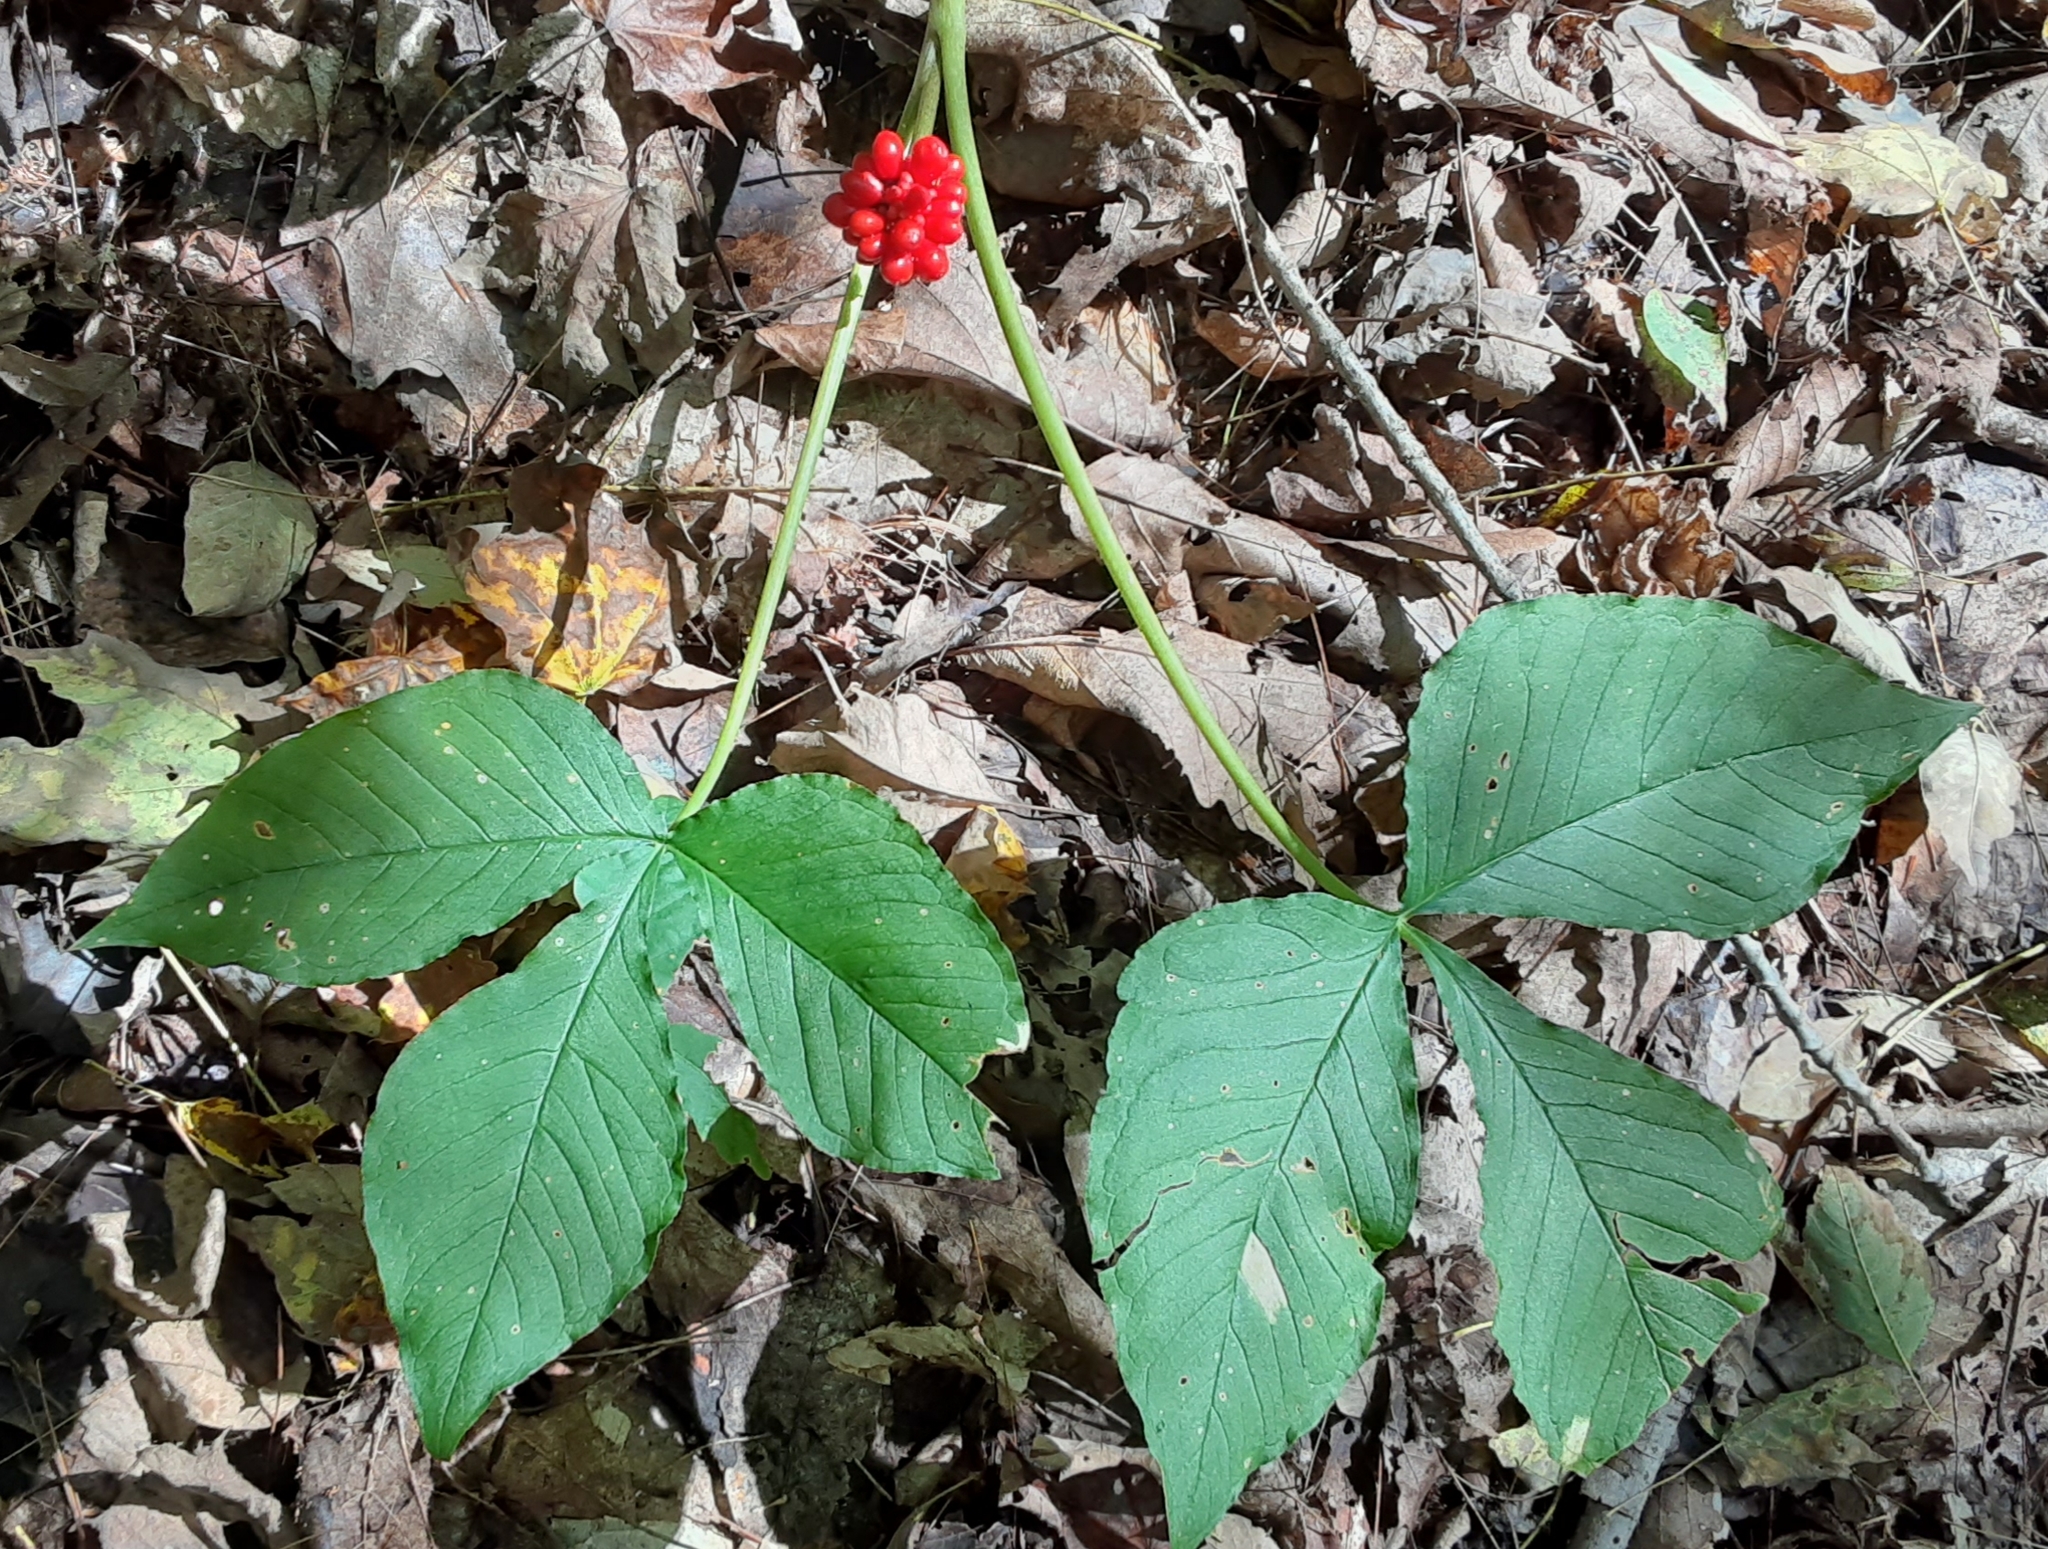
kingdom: Plantae
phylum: Tracheophyta
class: Liliopsida
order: Alismatales
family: Araceae
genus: Arisaema
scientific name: Arisaema triphyllum
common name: Jack-in-the-pulpit
